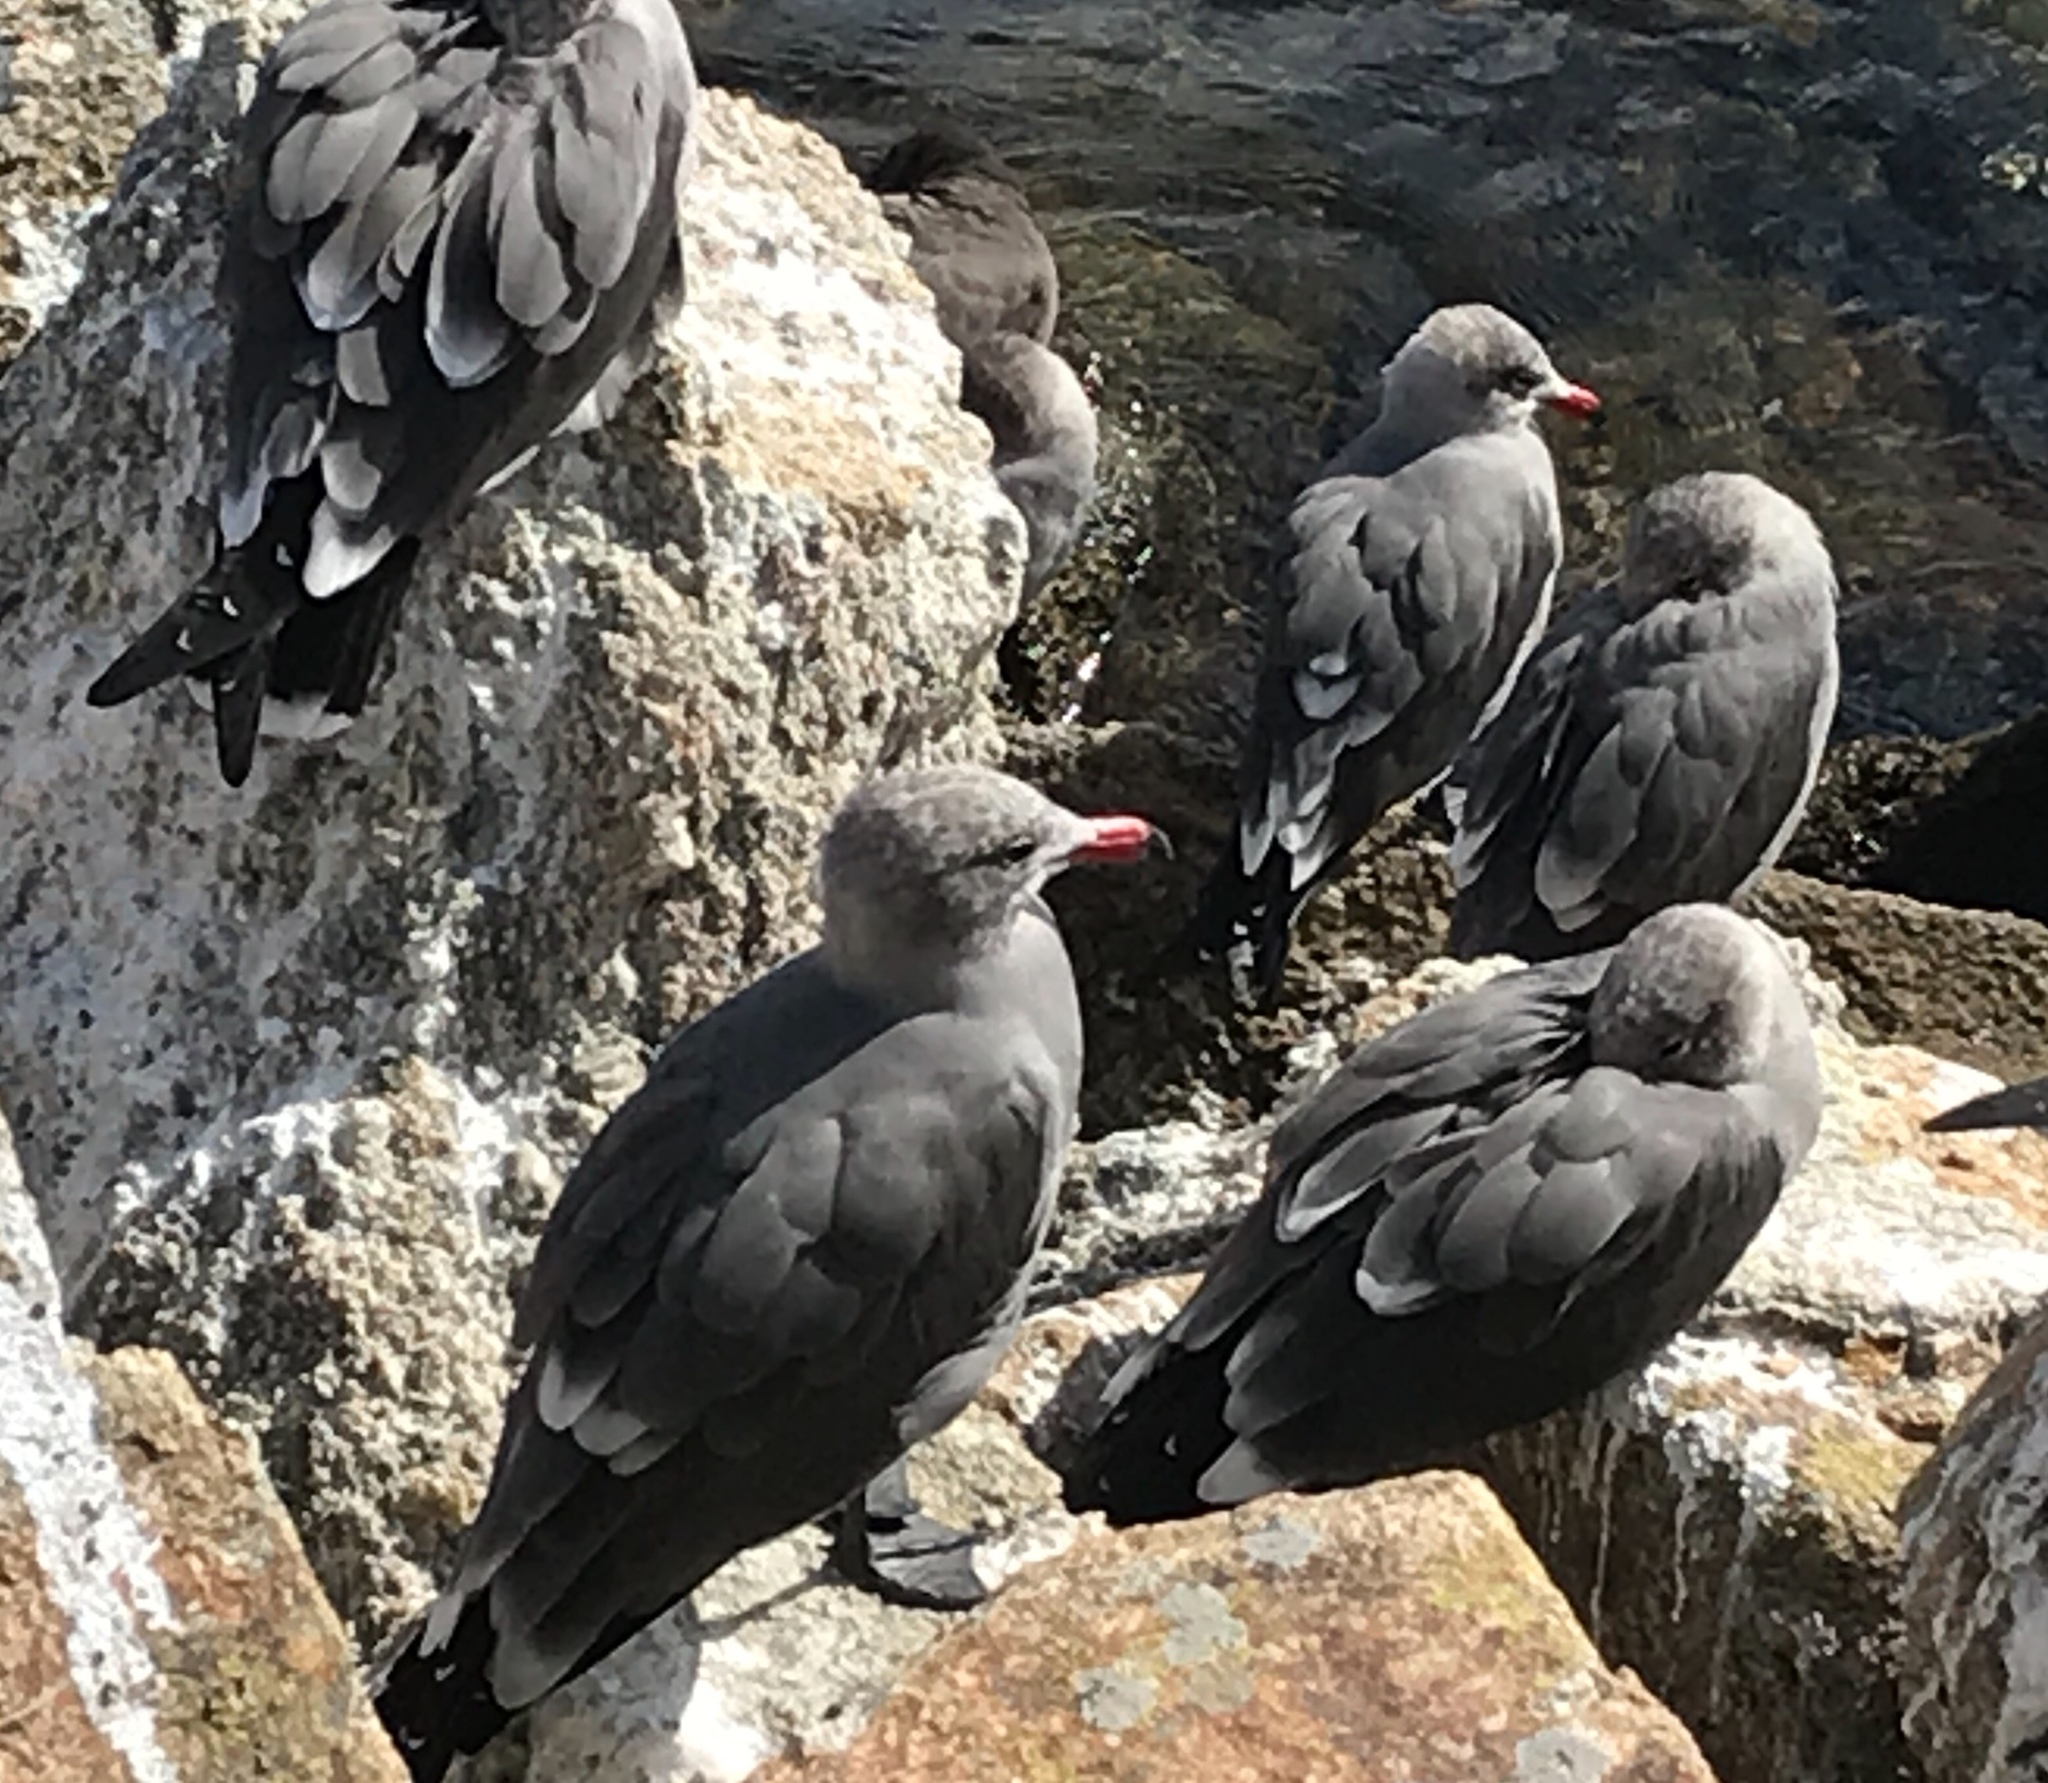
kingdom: Animalia
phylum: Chordata
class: Aves
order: Charadriiformes
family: Laridae
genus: Larus
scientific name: Larus heermanni
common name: Heermann's gull
